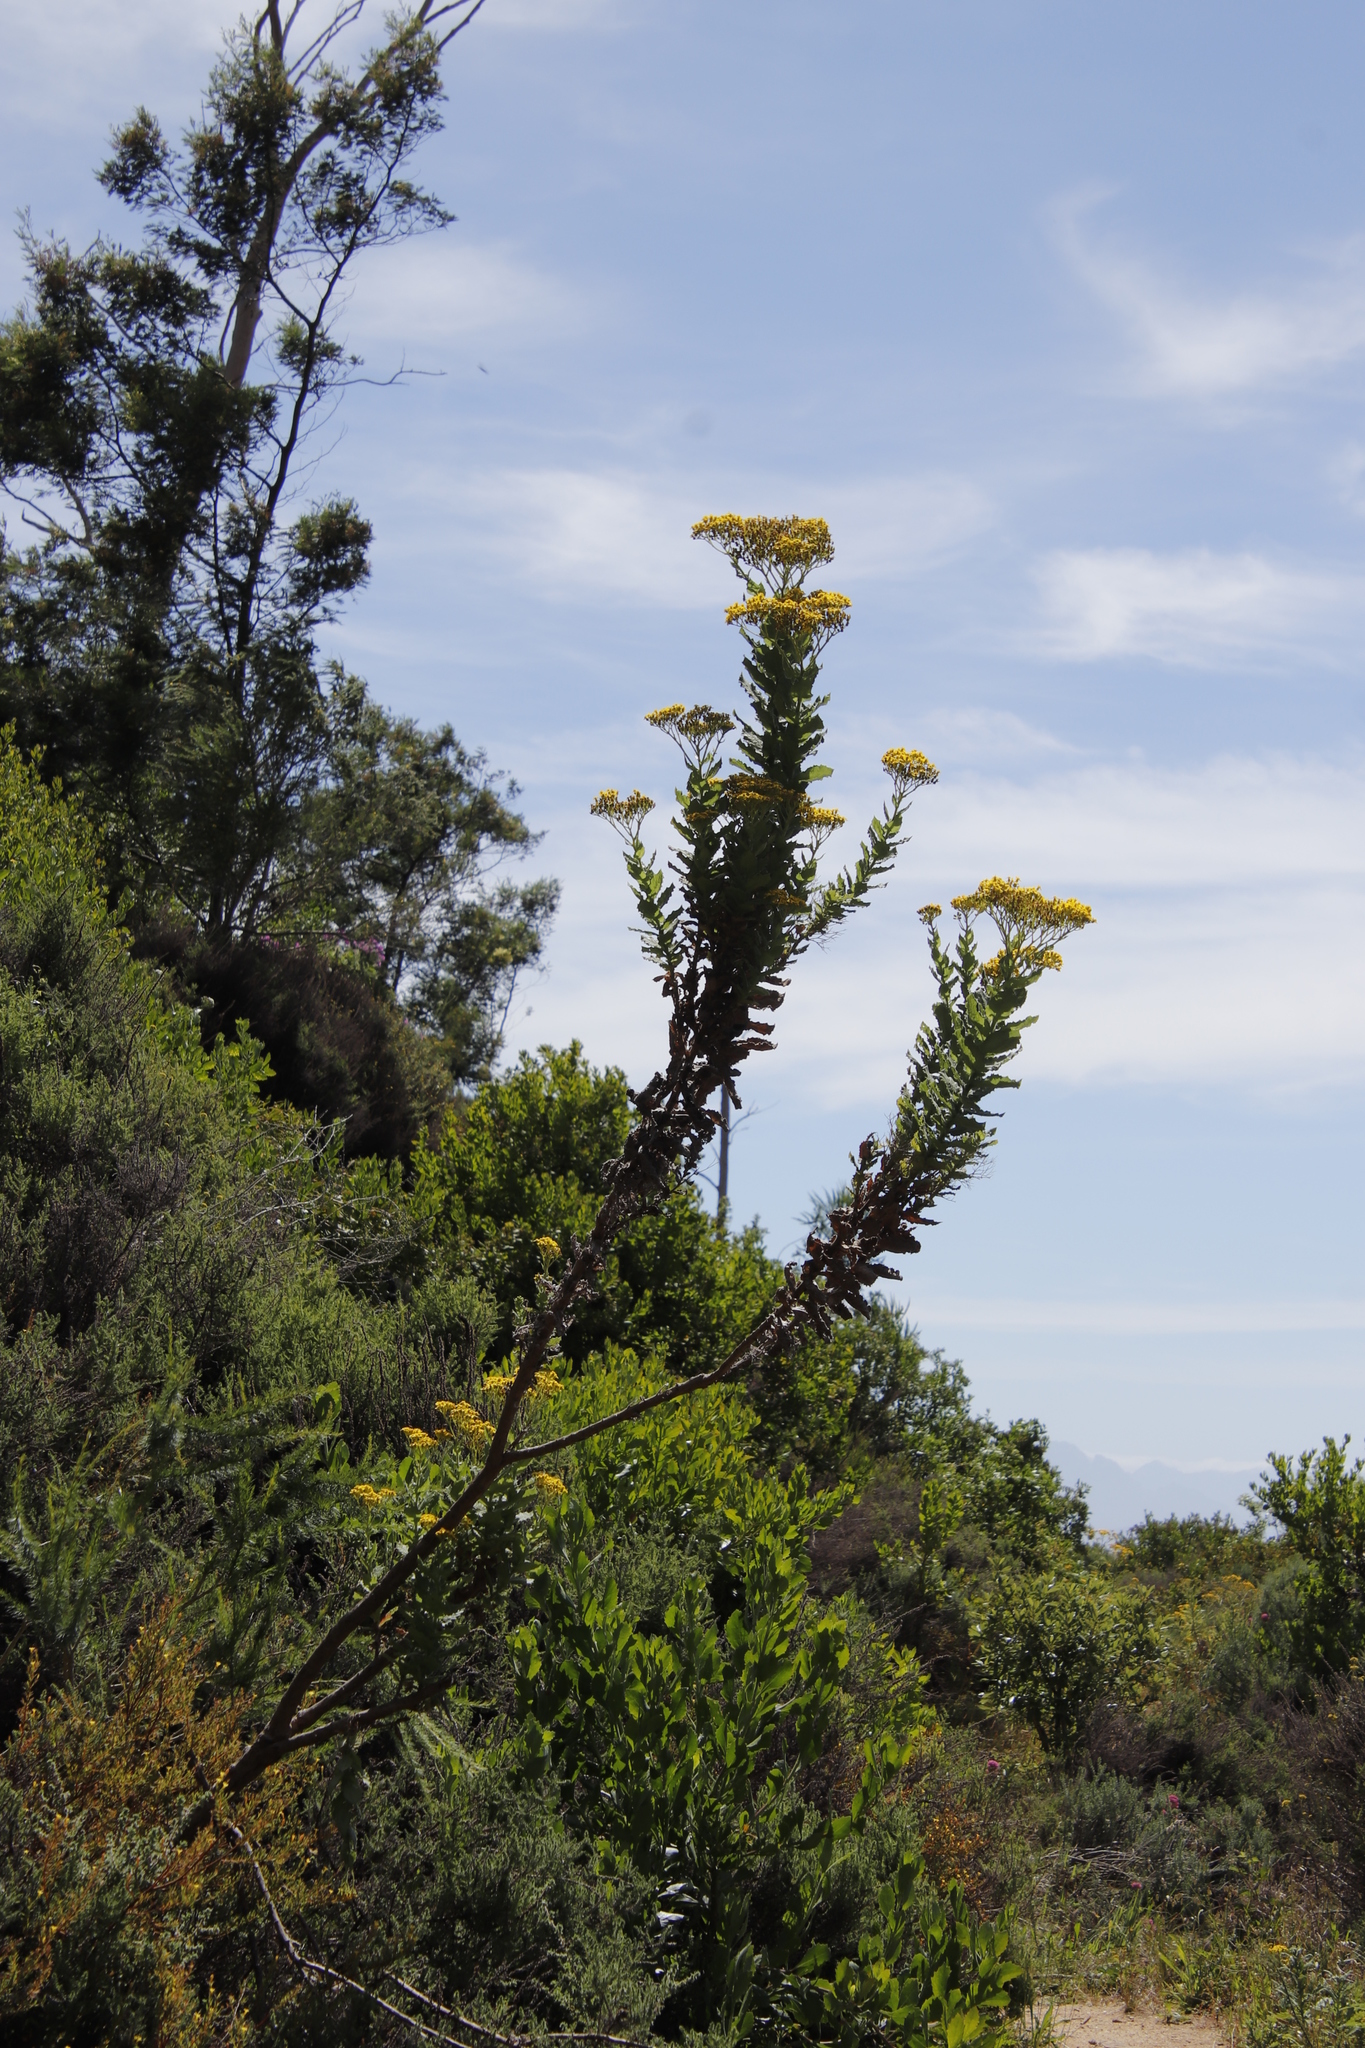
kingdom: Plantae
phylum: Tracheophyta
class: Magnoliopsida
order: Asterales
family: Asteraceae
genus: Senecio
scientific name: Senecio rigidus
